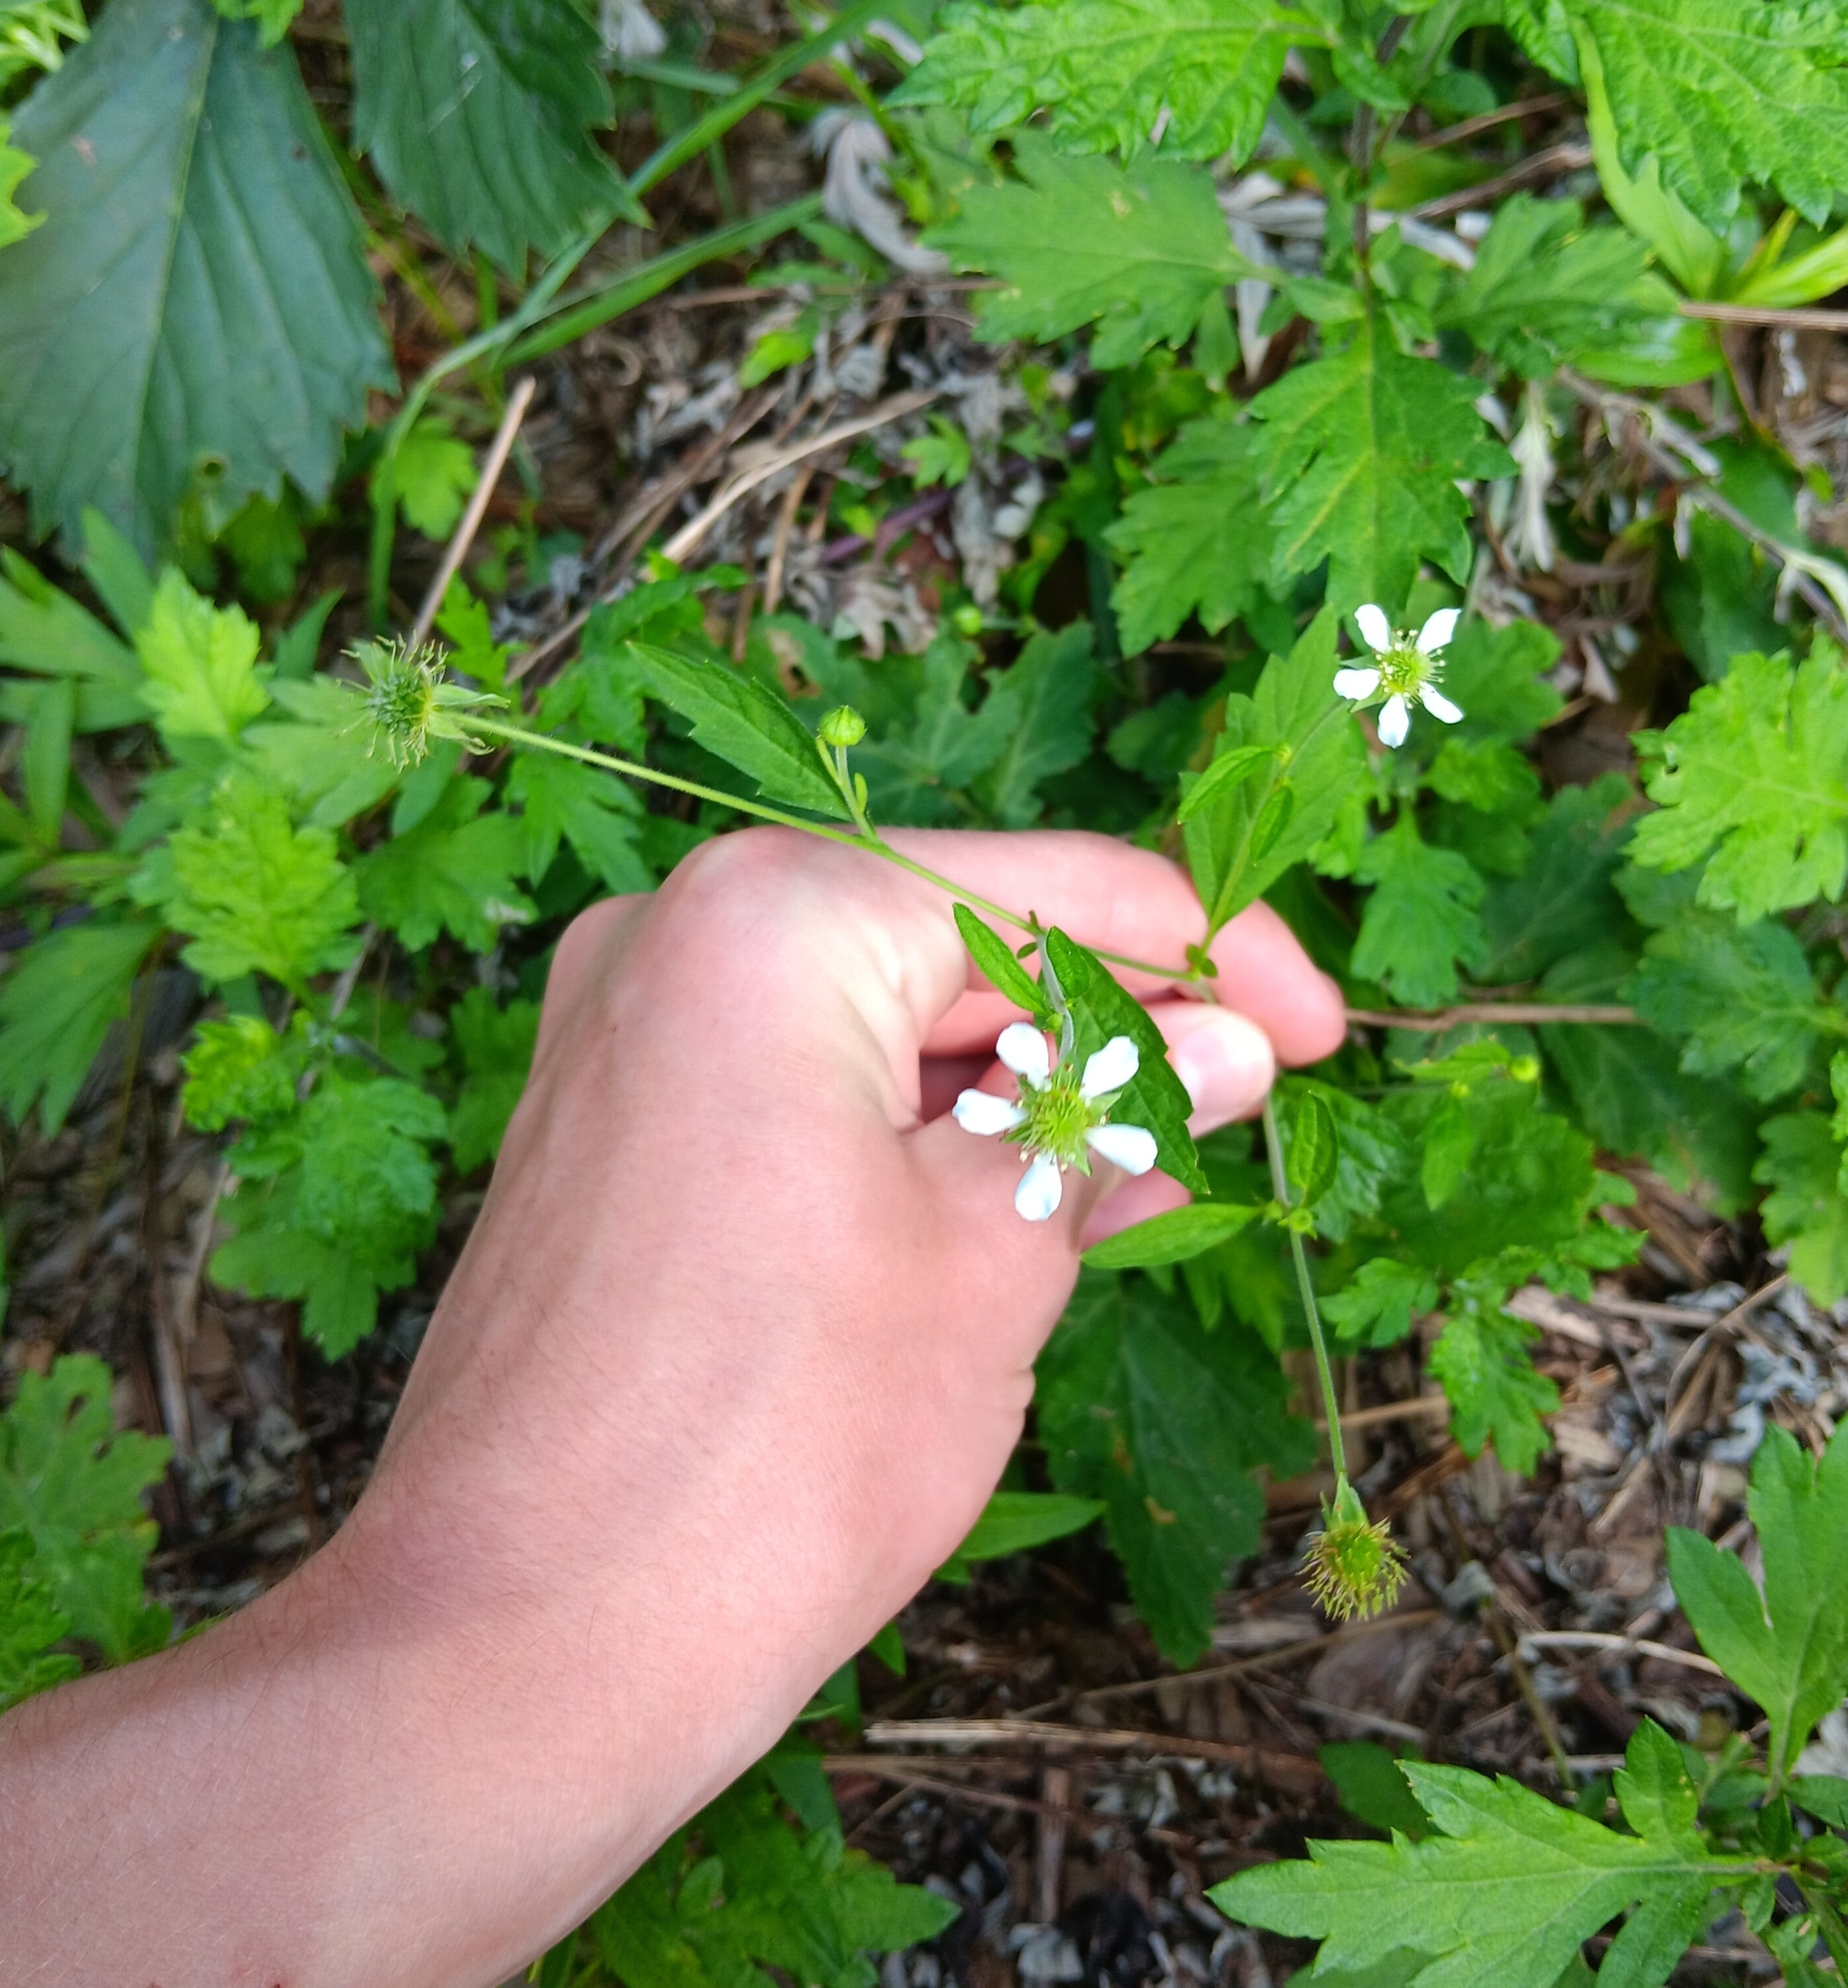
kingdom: Plantae
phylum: Tracheophyta
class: Magnoliopsida
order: Rosales
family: Rosaceae
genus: Geum
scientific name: Geum canadense
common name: White avens
